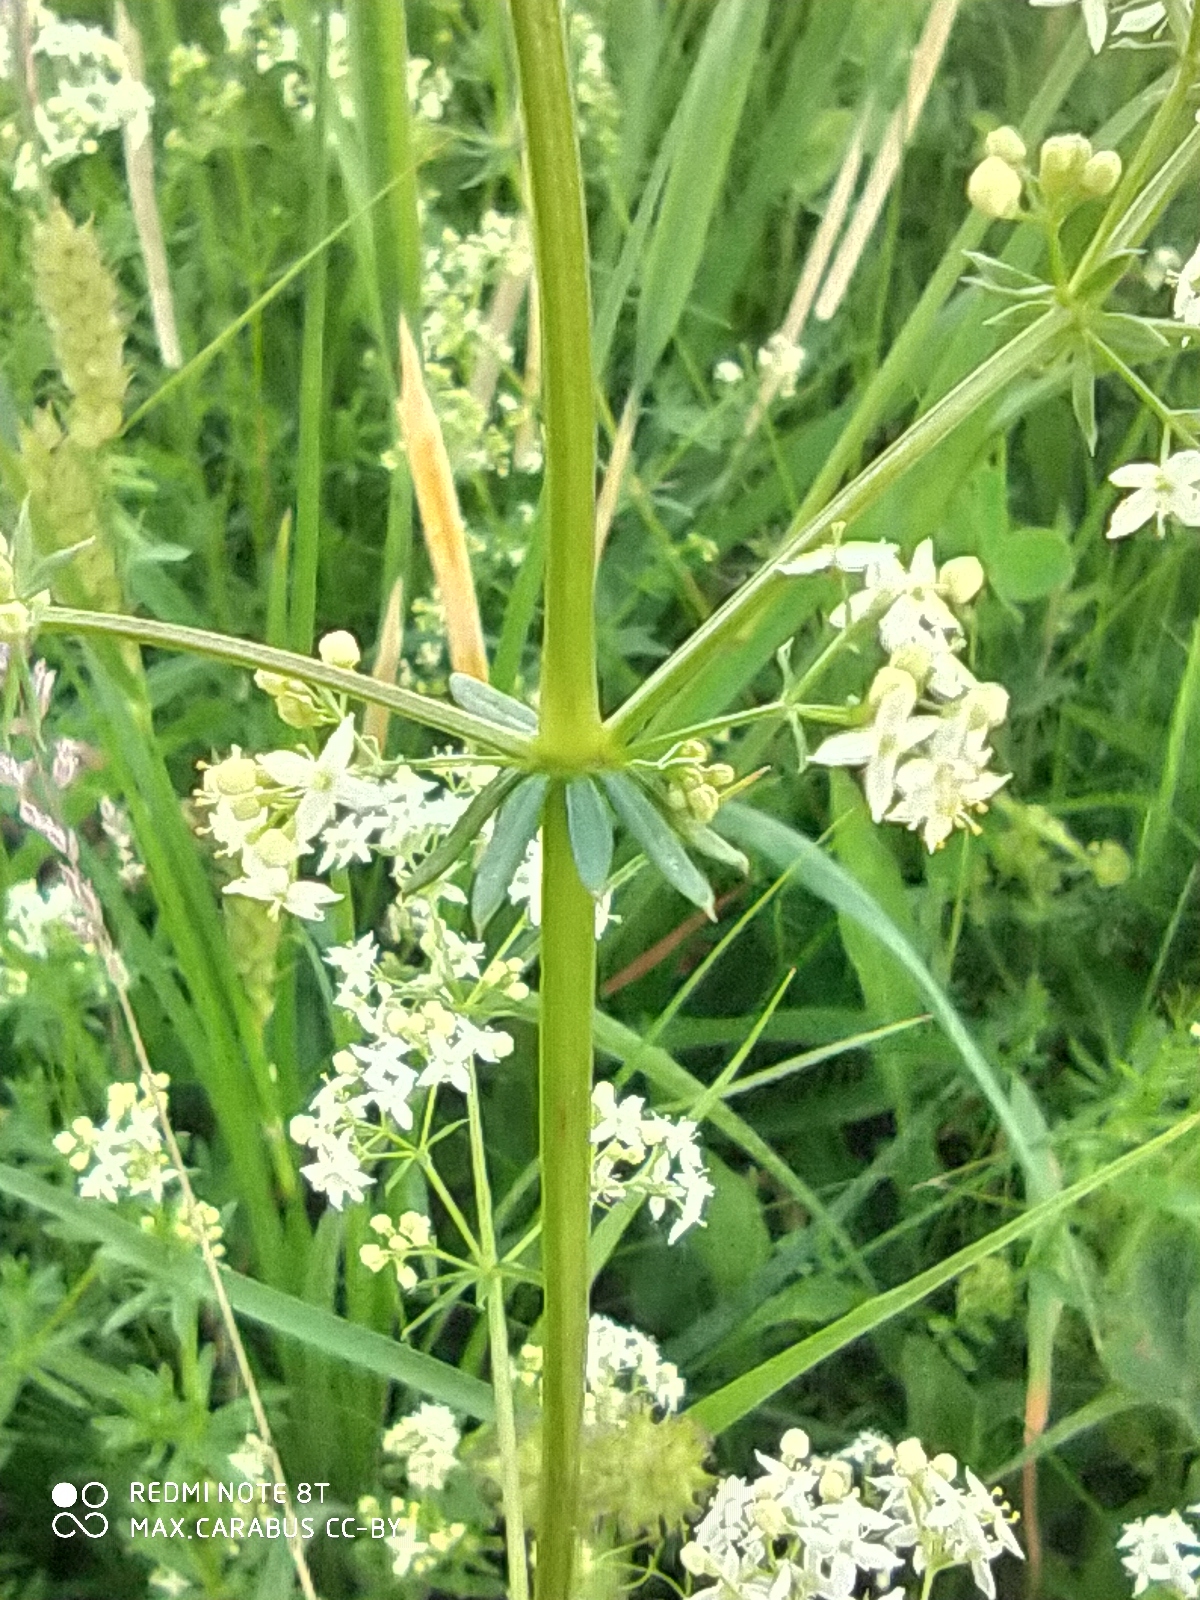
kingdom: Plantae
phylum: Tracheophyta
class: Magnoliopsida
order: Gentianales
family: Rubiaceae
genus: Galium
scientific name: Galium mollugo
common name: Hedge bedstraw
